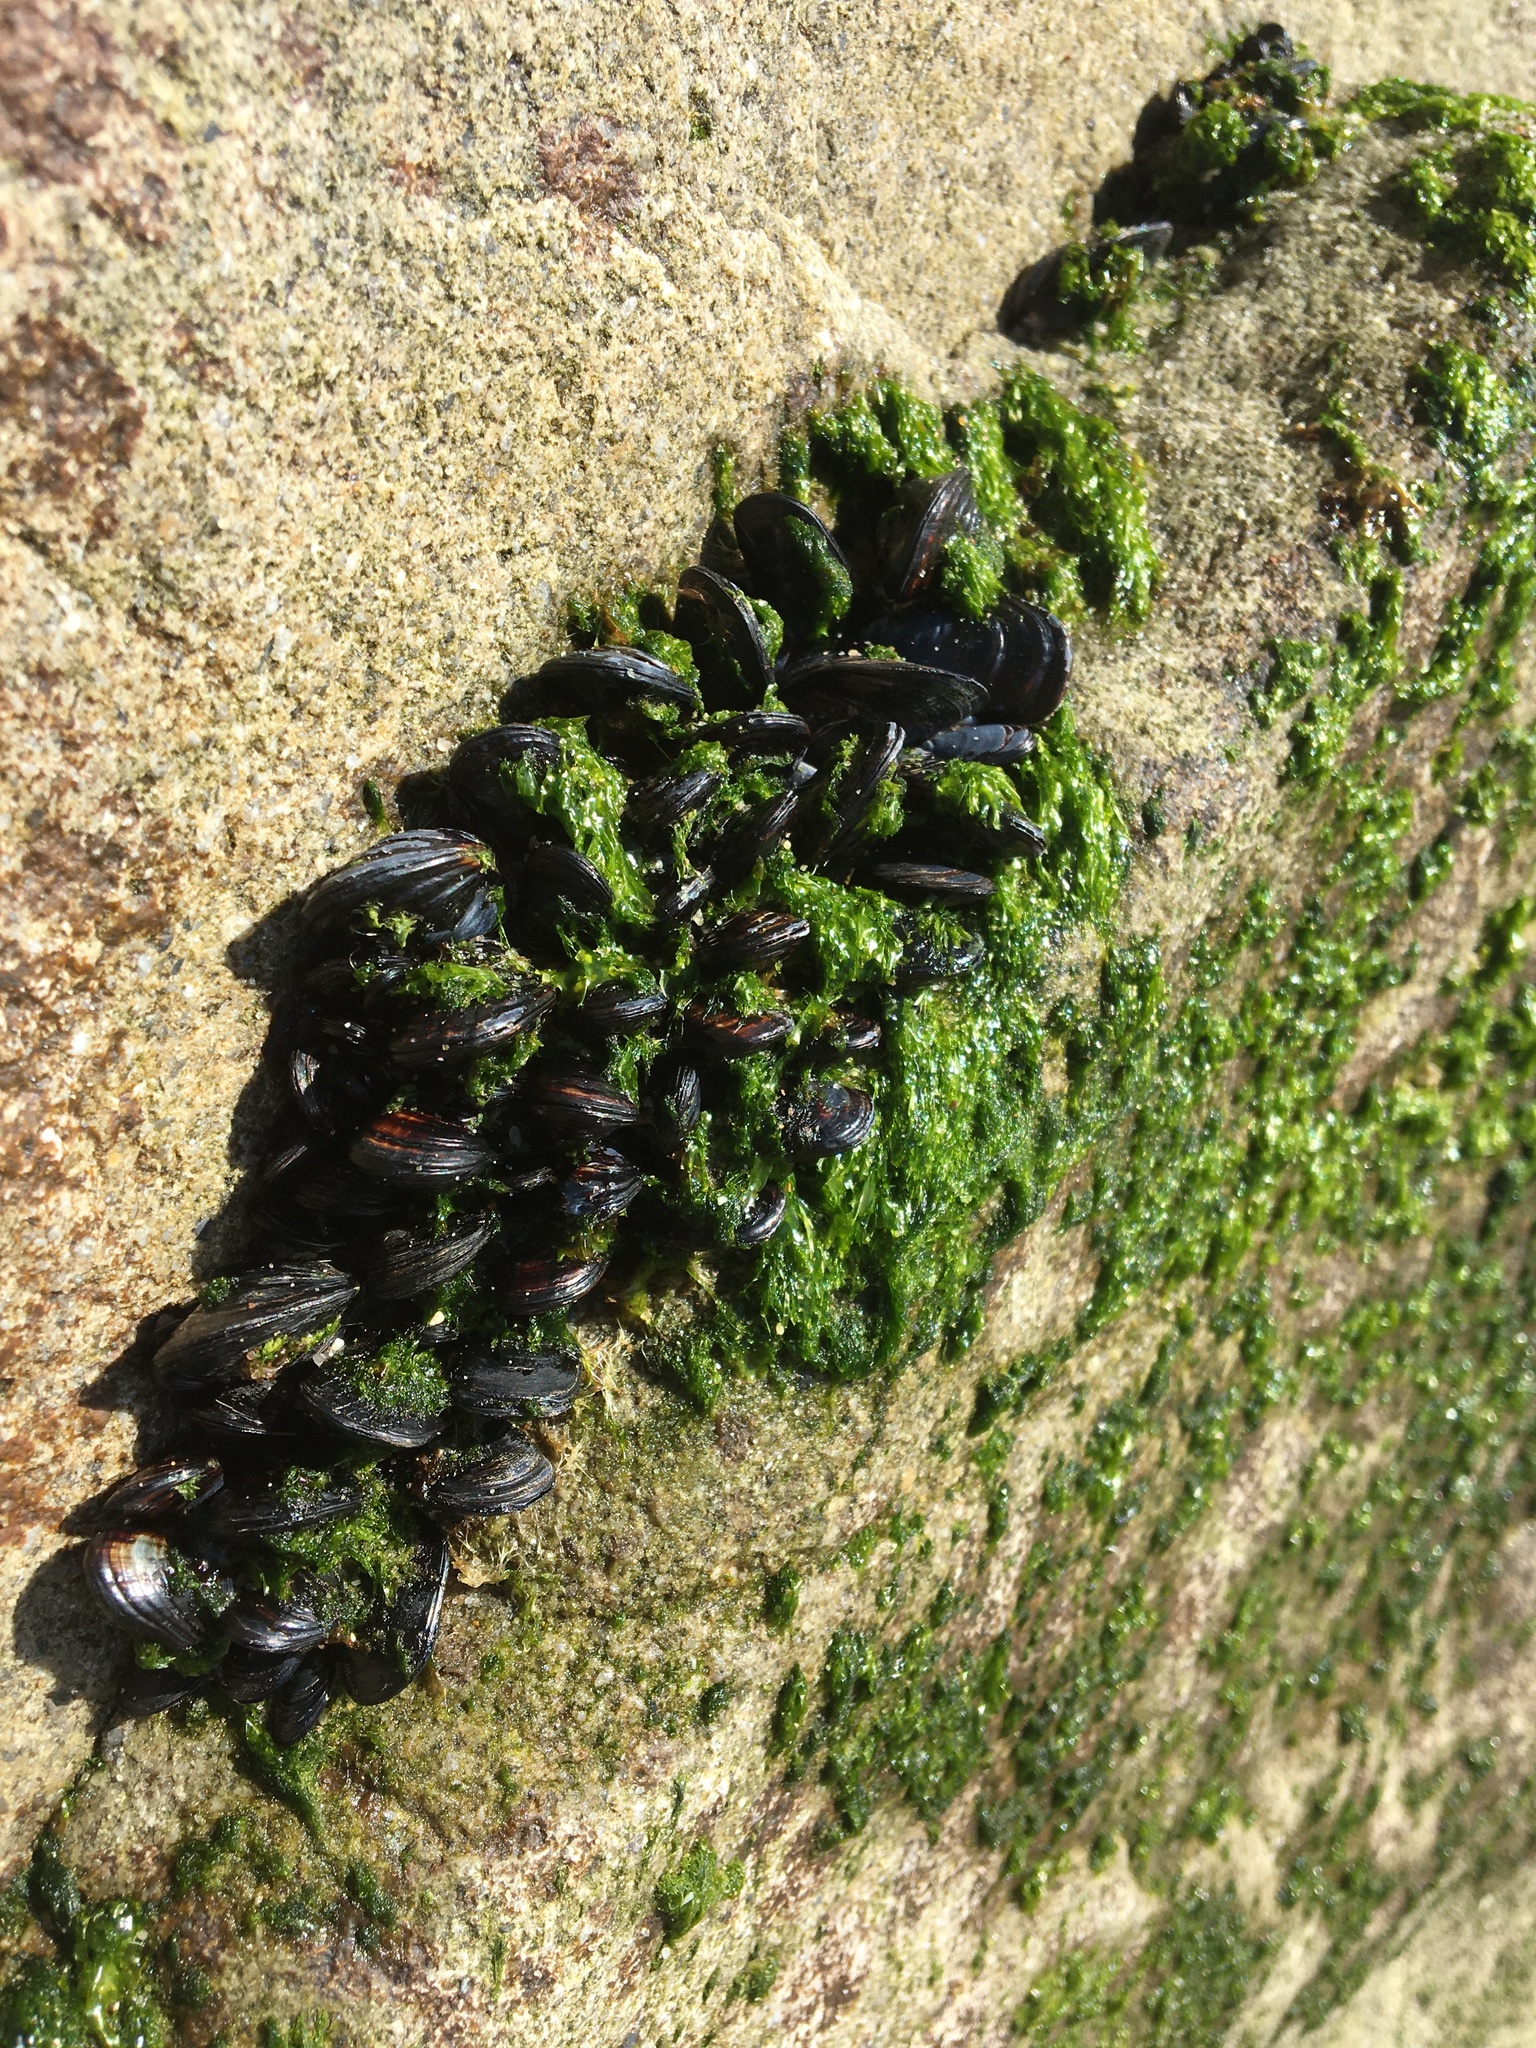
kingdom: Animalia
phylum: Mollusca
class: Bivalvia
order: Mytilida
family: Mytilidae
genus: Mytilus
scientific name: Mytilus californianus
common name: California mussel
